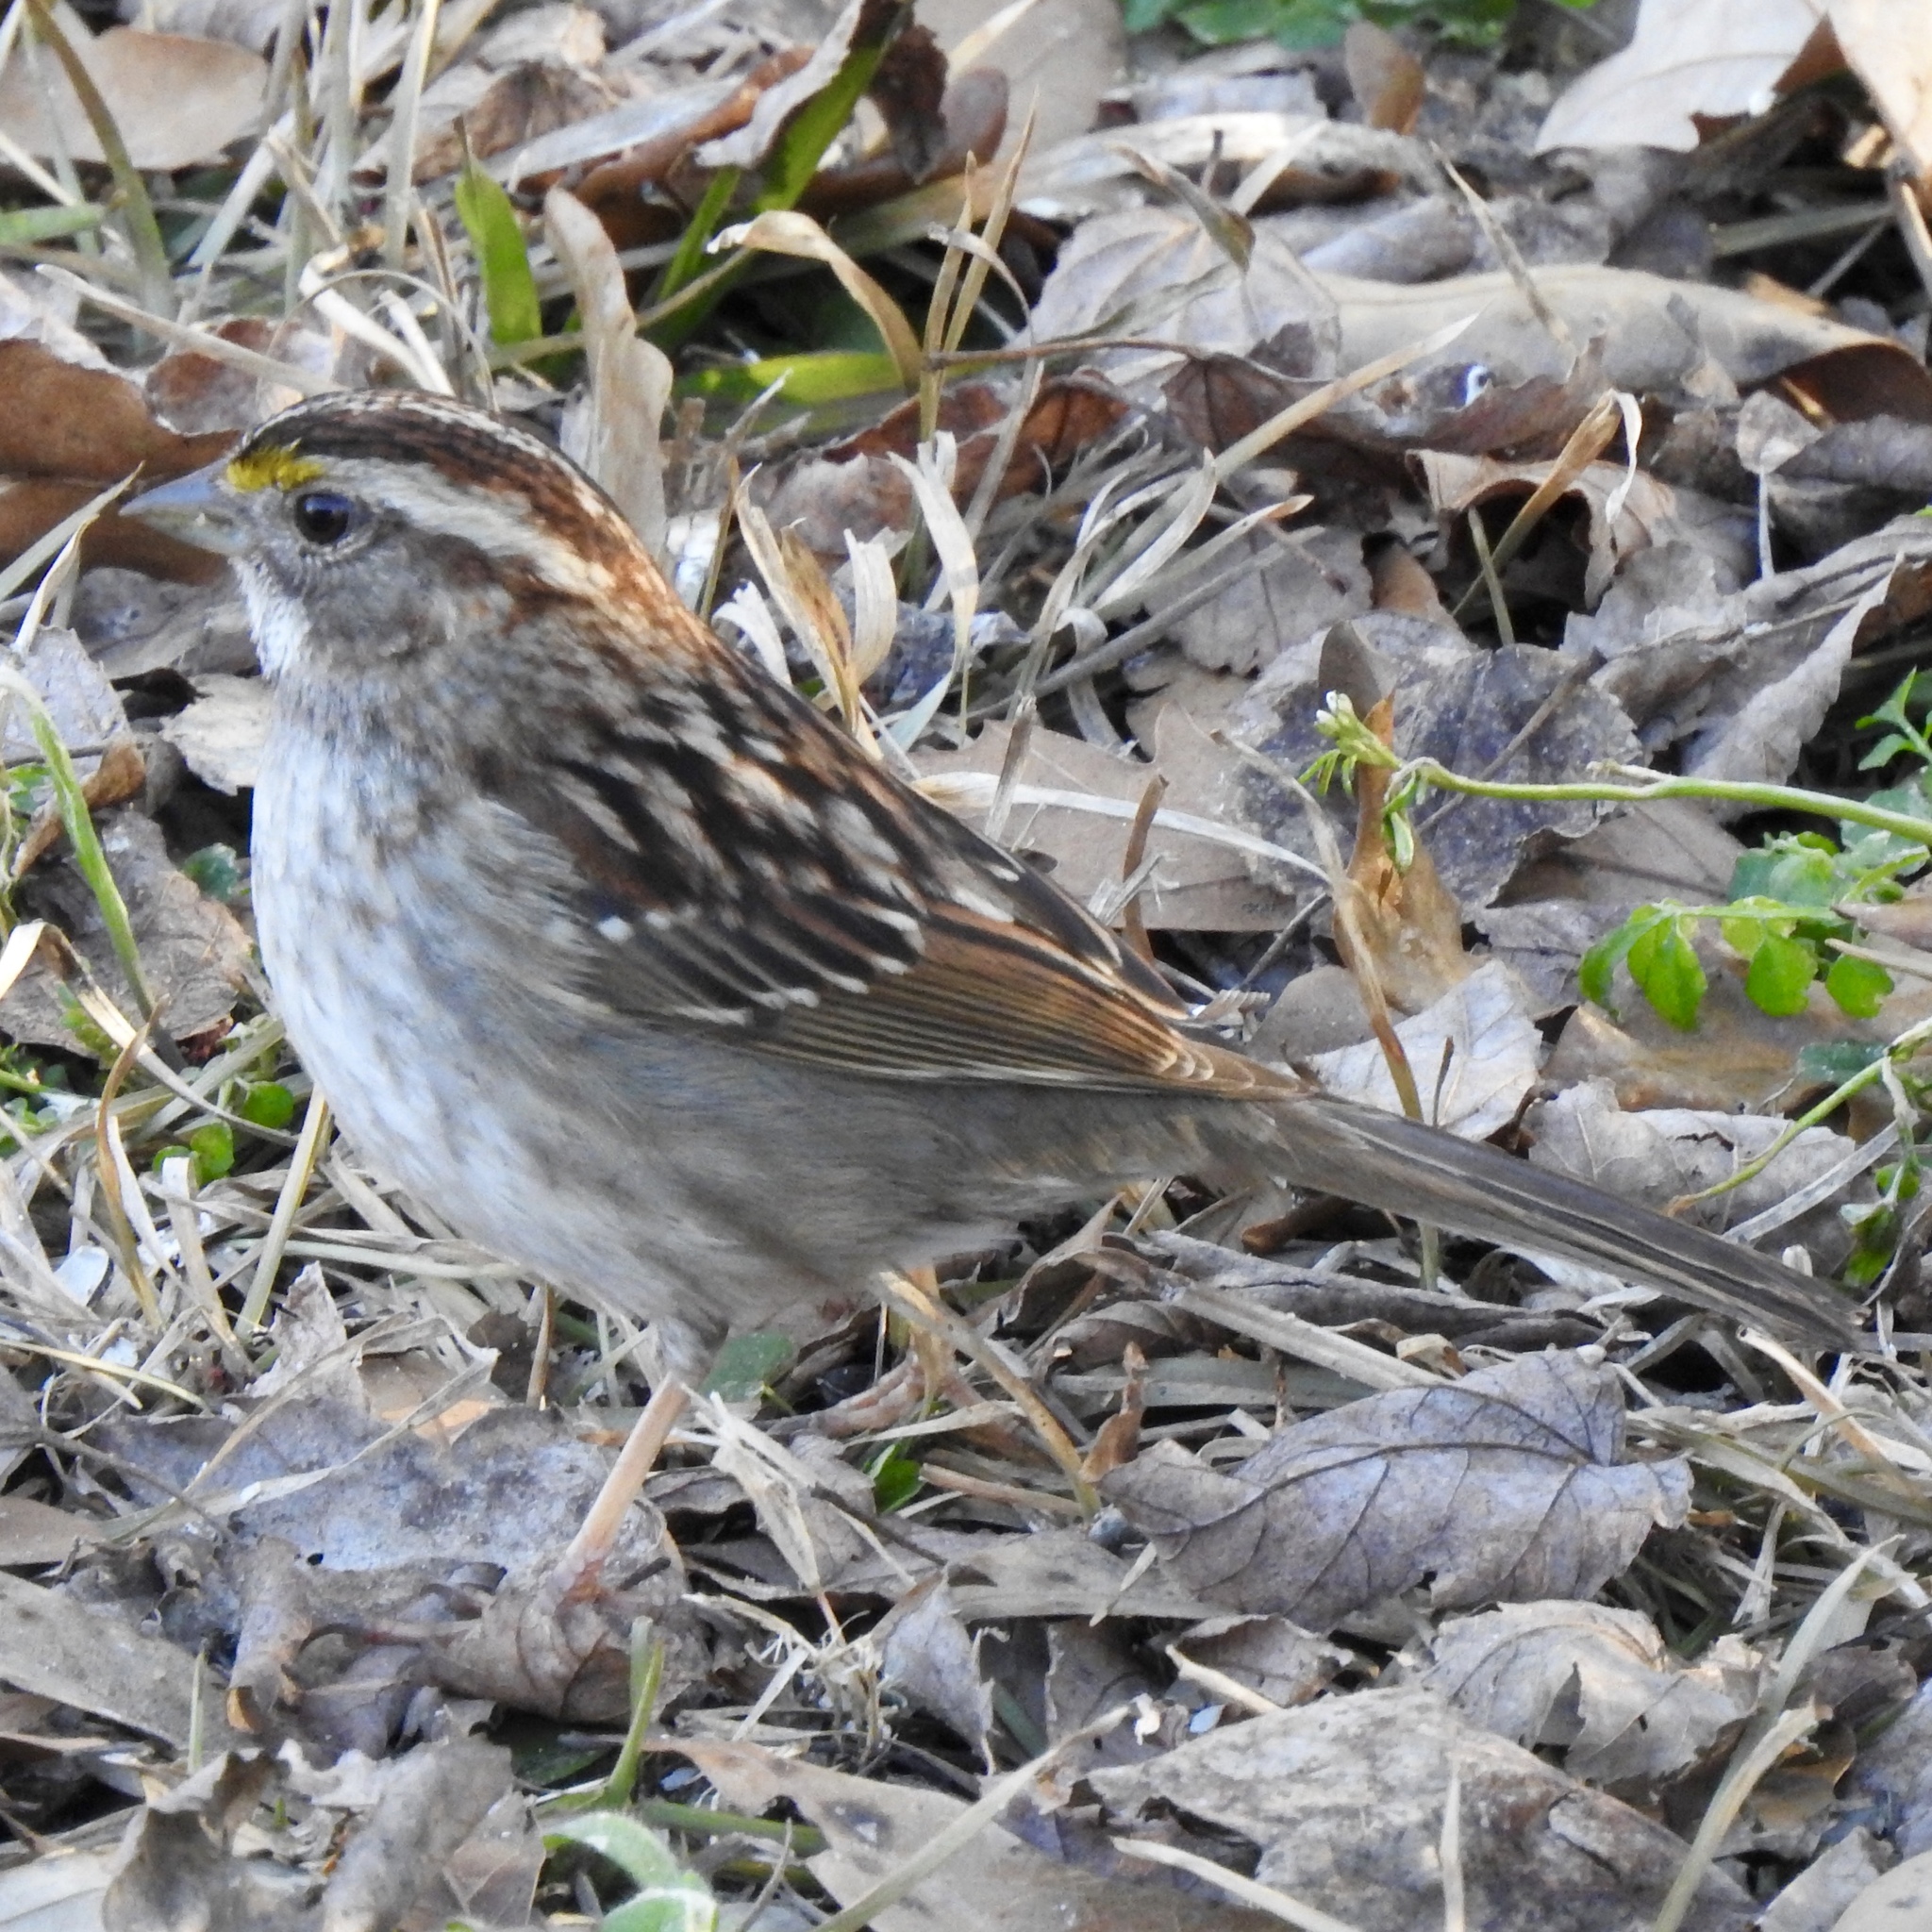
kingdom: Animalia
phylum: Chordata
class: Aves
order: Passeriformes
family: Passerellidae
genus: Zonotrichia
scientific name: Zonotrichia albicollis
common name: White-throated sparrow
